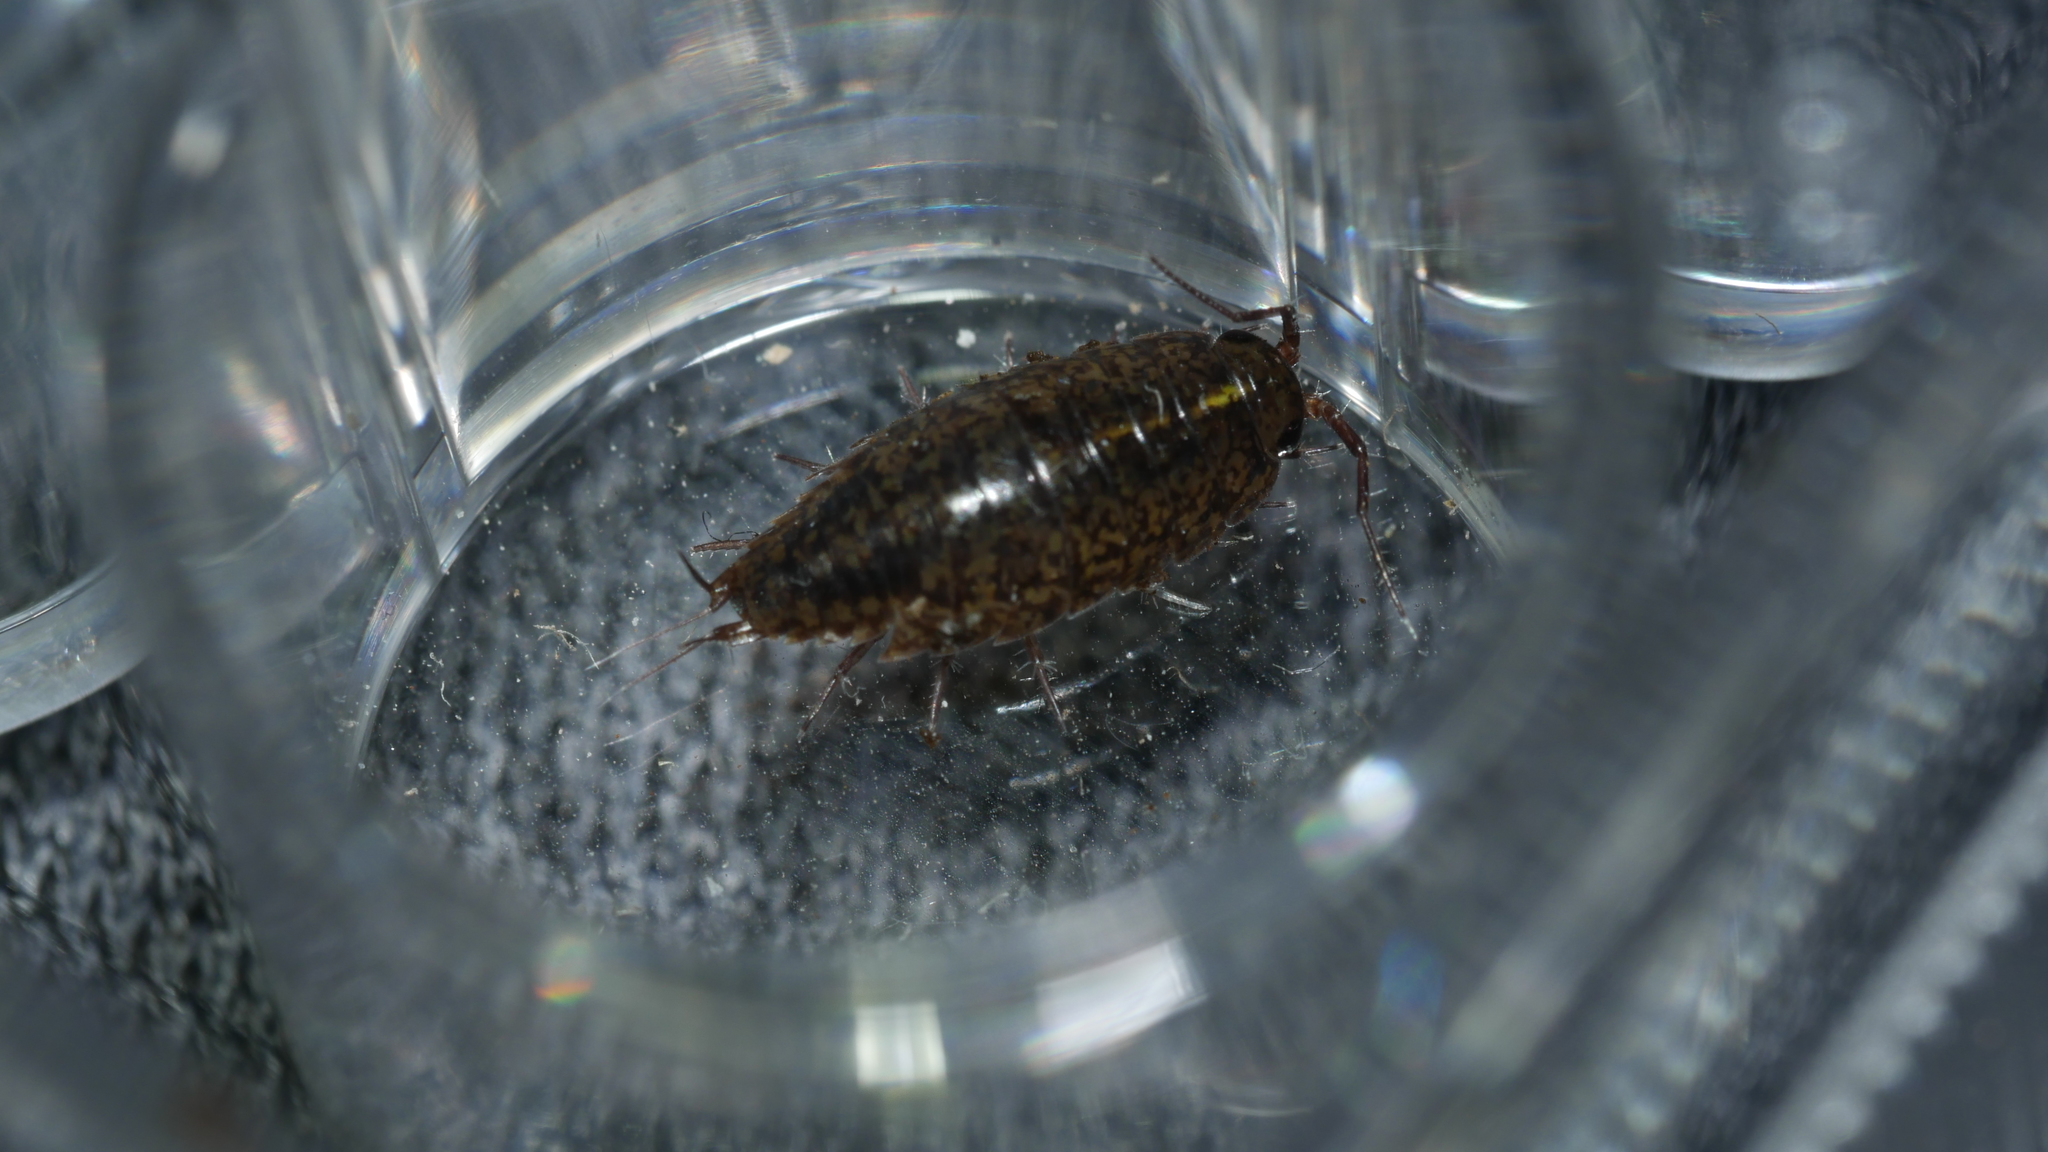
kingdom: Animalia
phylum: Arthropoda
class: Malacostraca
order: Isopoda
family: Ligiidae
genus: Ligidium
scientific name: Ligidium elrodii
